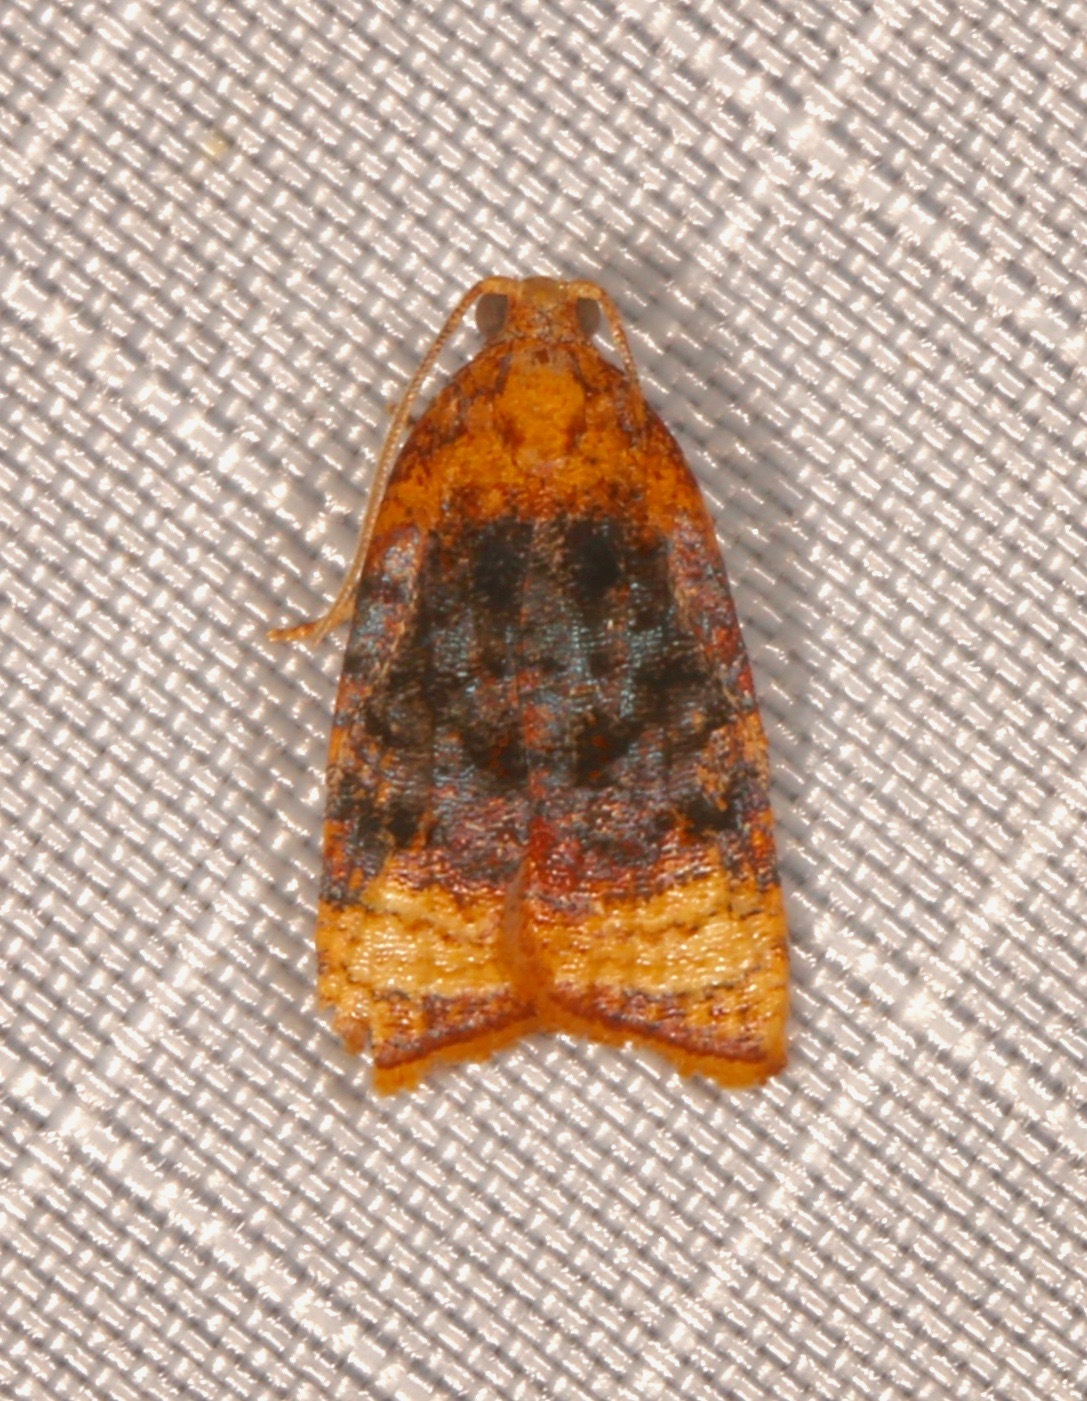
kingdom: Animalia
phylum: Arthropoda
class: Insecta
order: Lepidoptera
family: Tortricidae
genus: Platynota
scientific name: Platynota flavedana
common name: Black-shaded platynota moth
